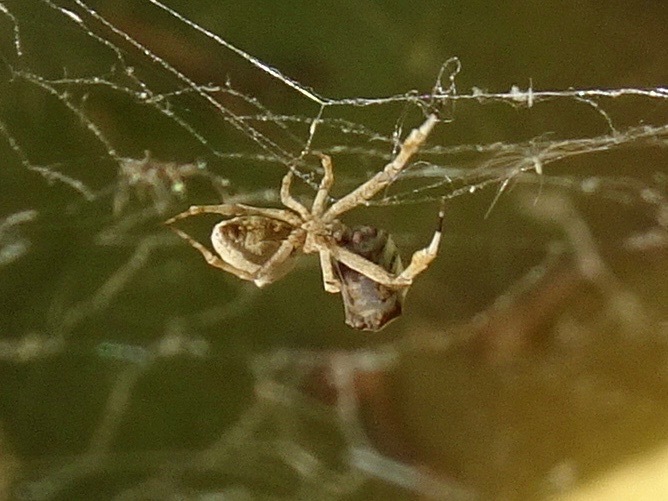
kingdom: Animalia
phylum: Arthropoda
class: Arachnida
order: Araneae
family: Uloboridae
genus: Uloborus
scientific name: Uloborus diversus
